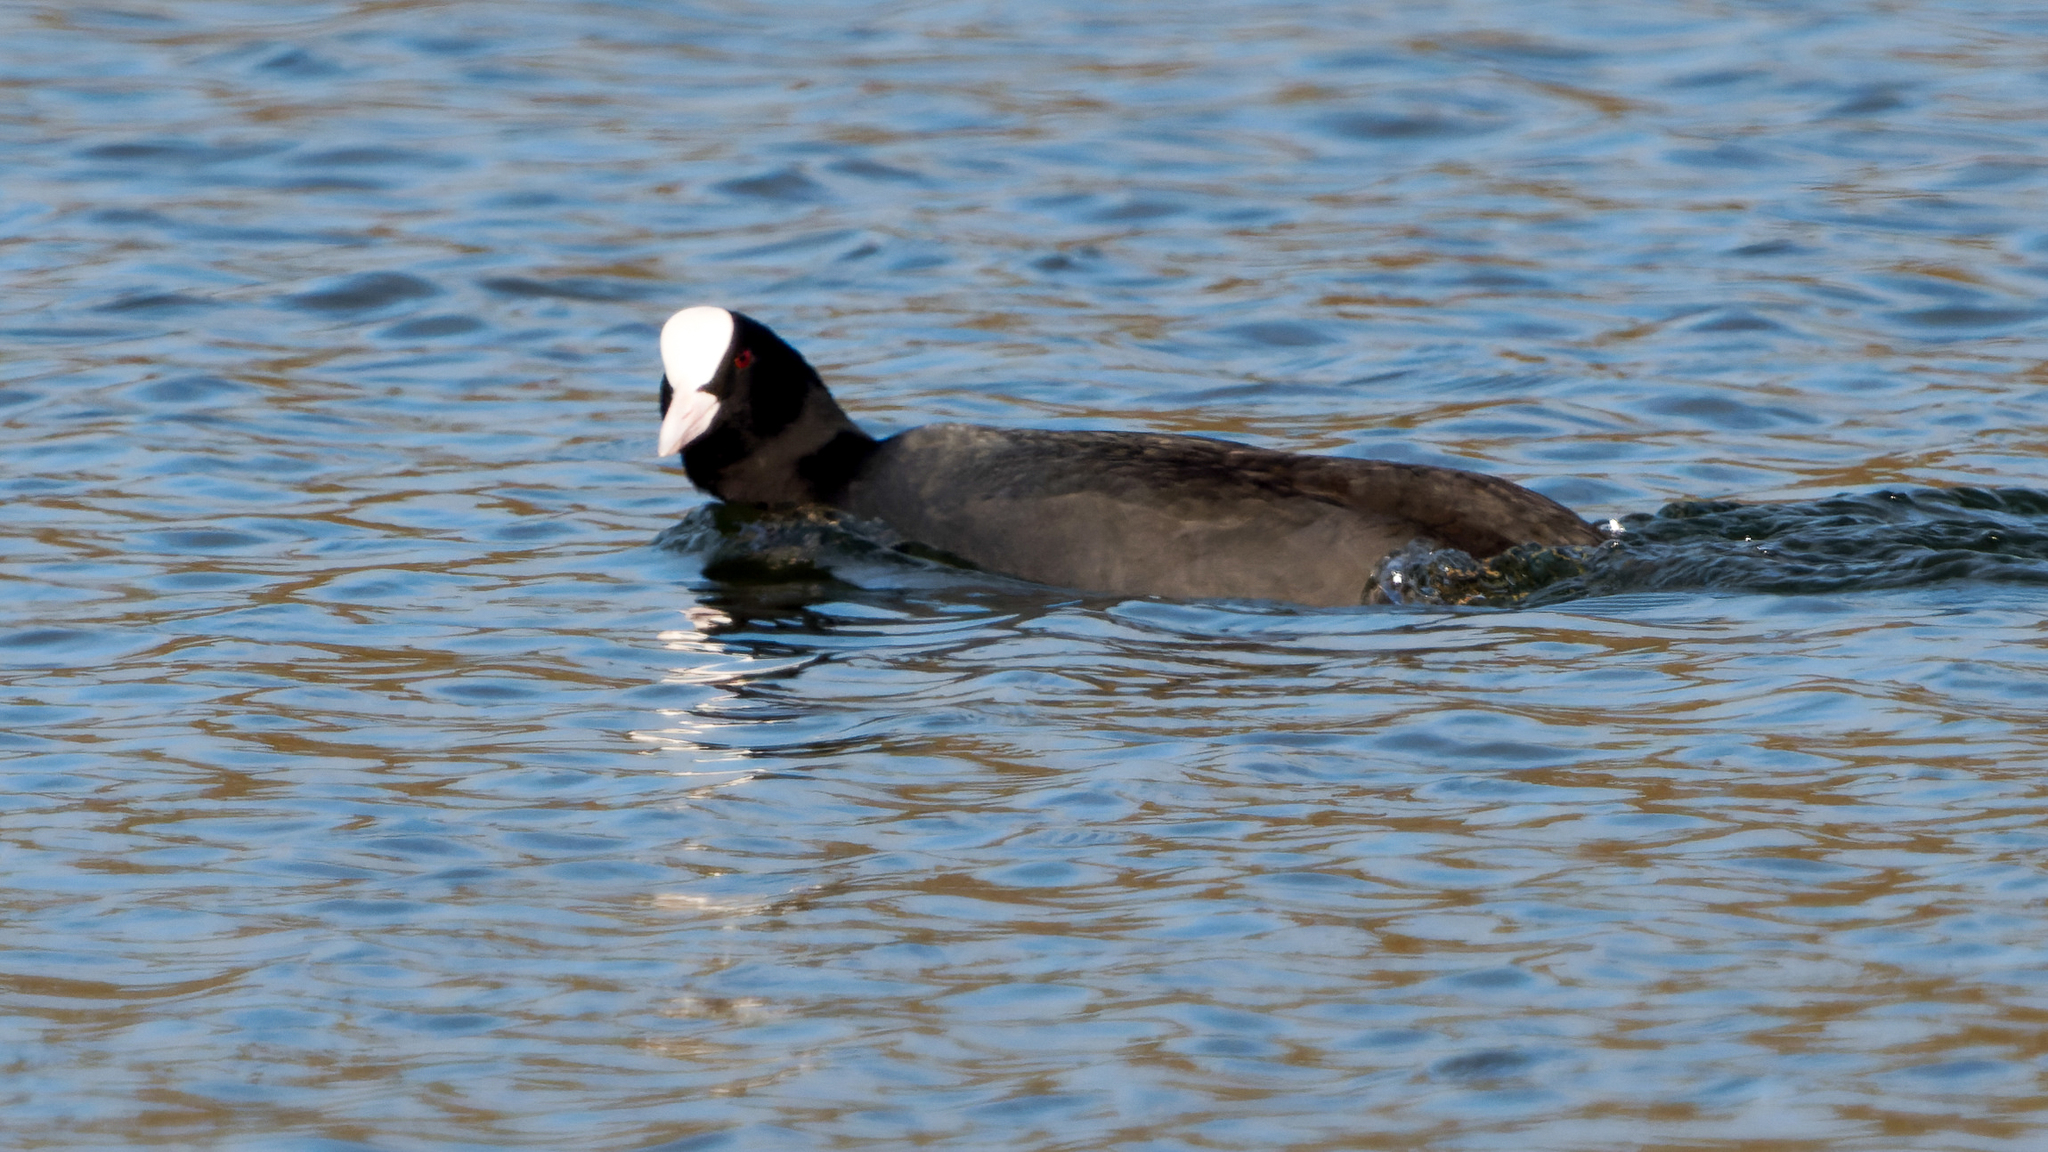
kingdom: Animalia
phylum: Chordata
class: Aves
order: Gruiformes
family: Rallidae
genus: Fulica
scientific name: Fulica atra
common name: Eurasian coot
